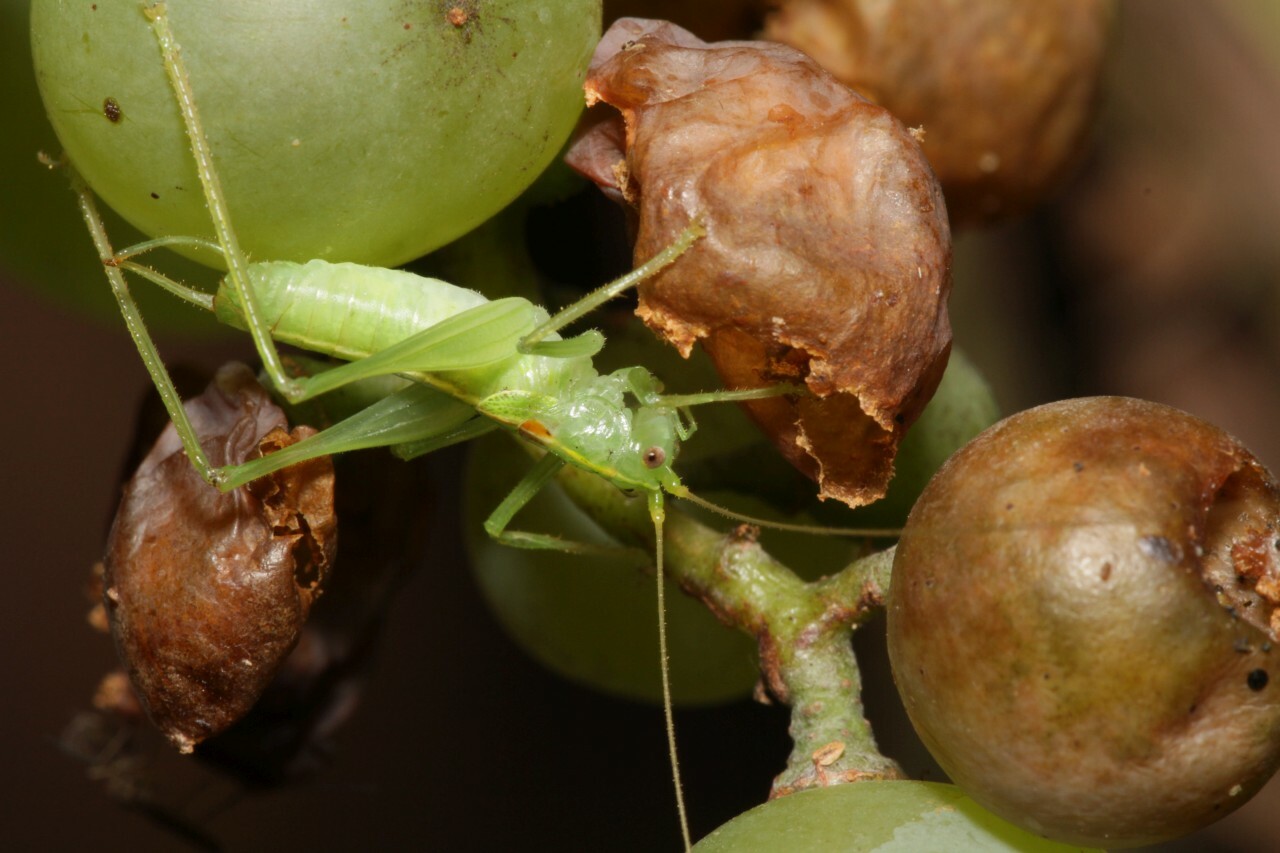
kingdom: Animalia
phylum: Arthropoda
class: Insecta
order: Orthoptera
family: Tettigoniidae
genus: Meconema
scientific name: Meconema meridionale
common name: Southern oak bush-cricket
